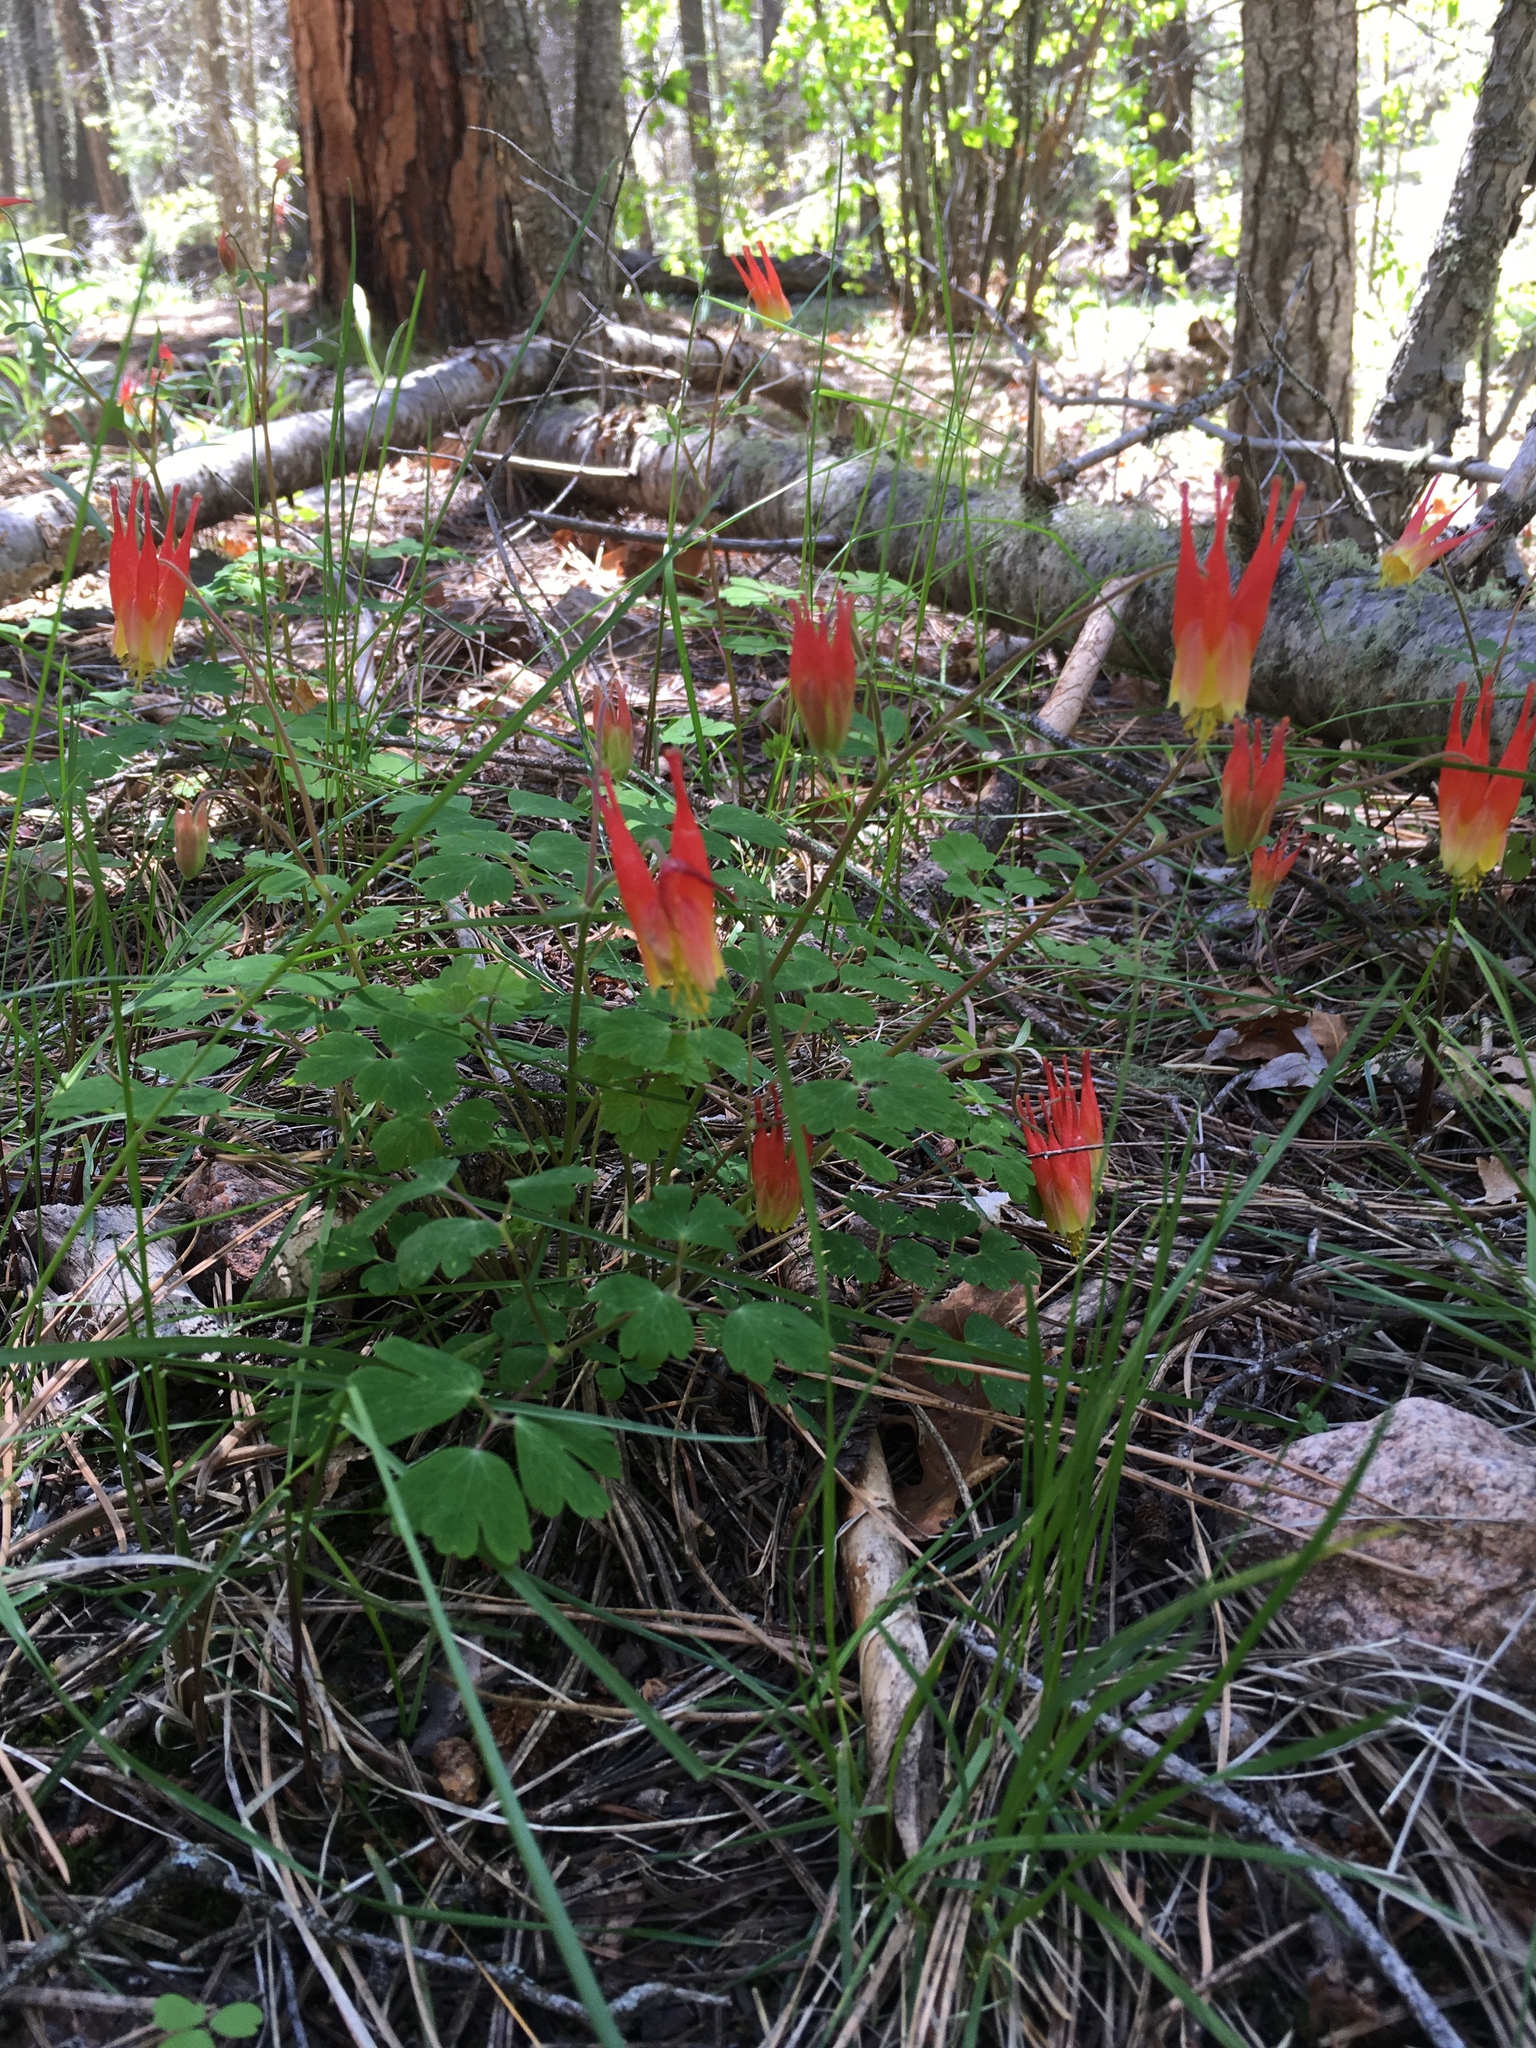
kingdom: Plantae
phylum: Tracheophyta
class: Magnoliopsida
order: Ranunculales
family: Ranunculaceae
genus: Aquilegia
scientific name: Aquilegia elegantula
